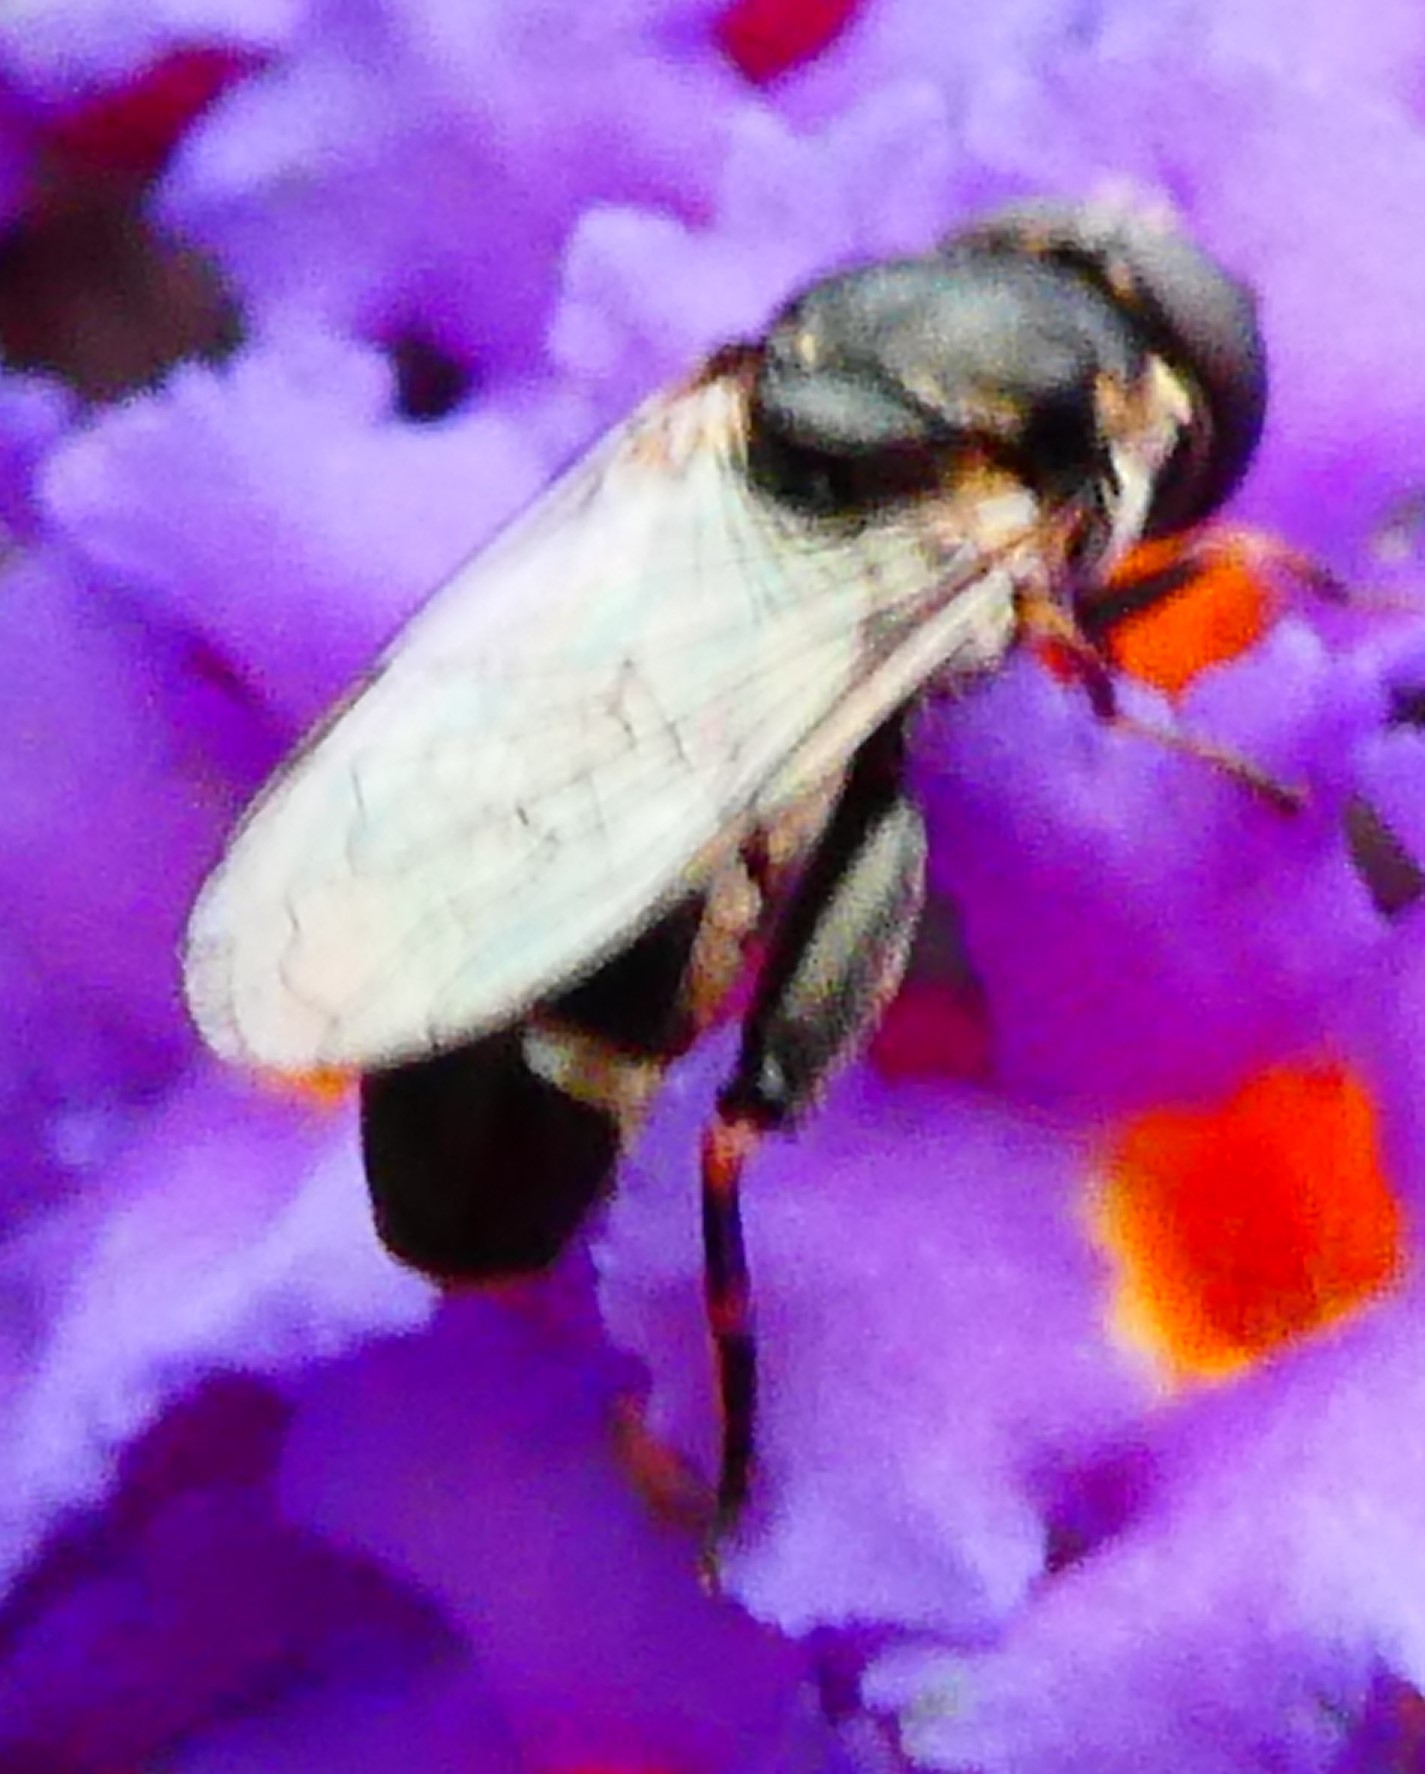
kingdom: Animalia
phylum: Arthropoda
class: Insecta
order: Diptera
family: Syrphidae
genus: Syritta
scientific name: Syritta pipiens
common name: Hover fly
